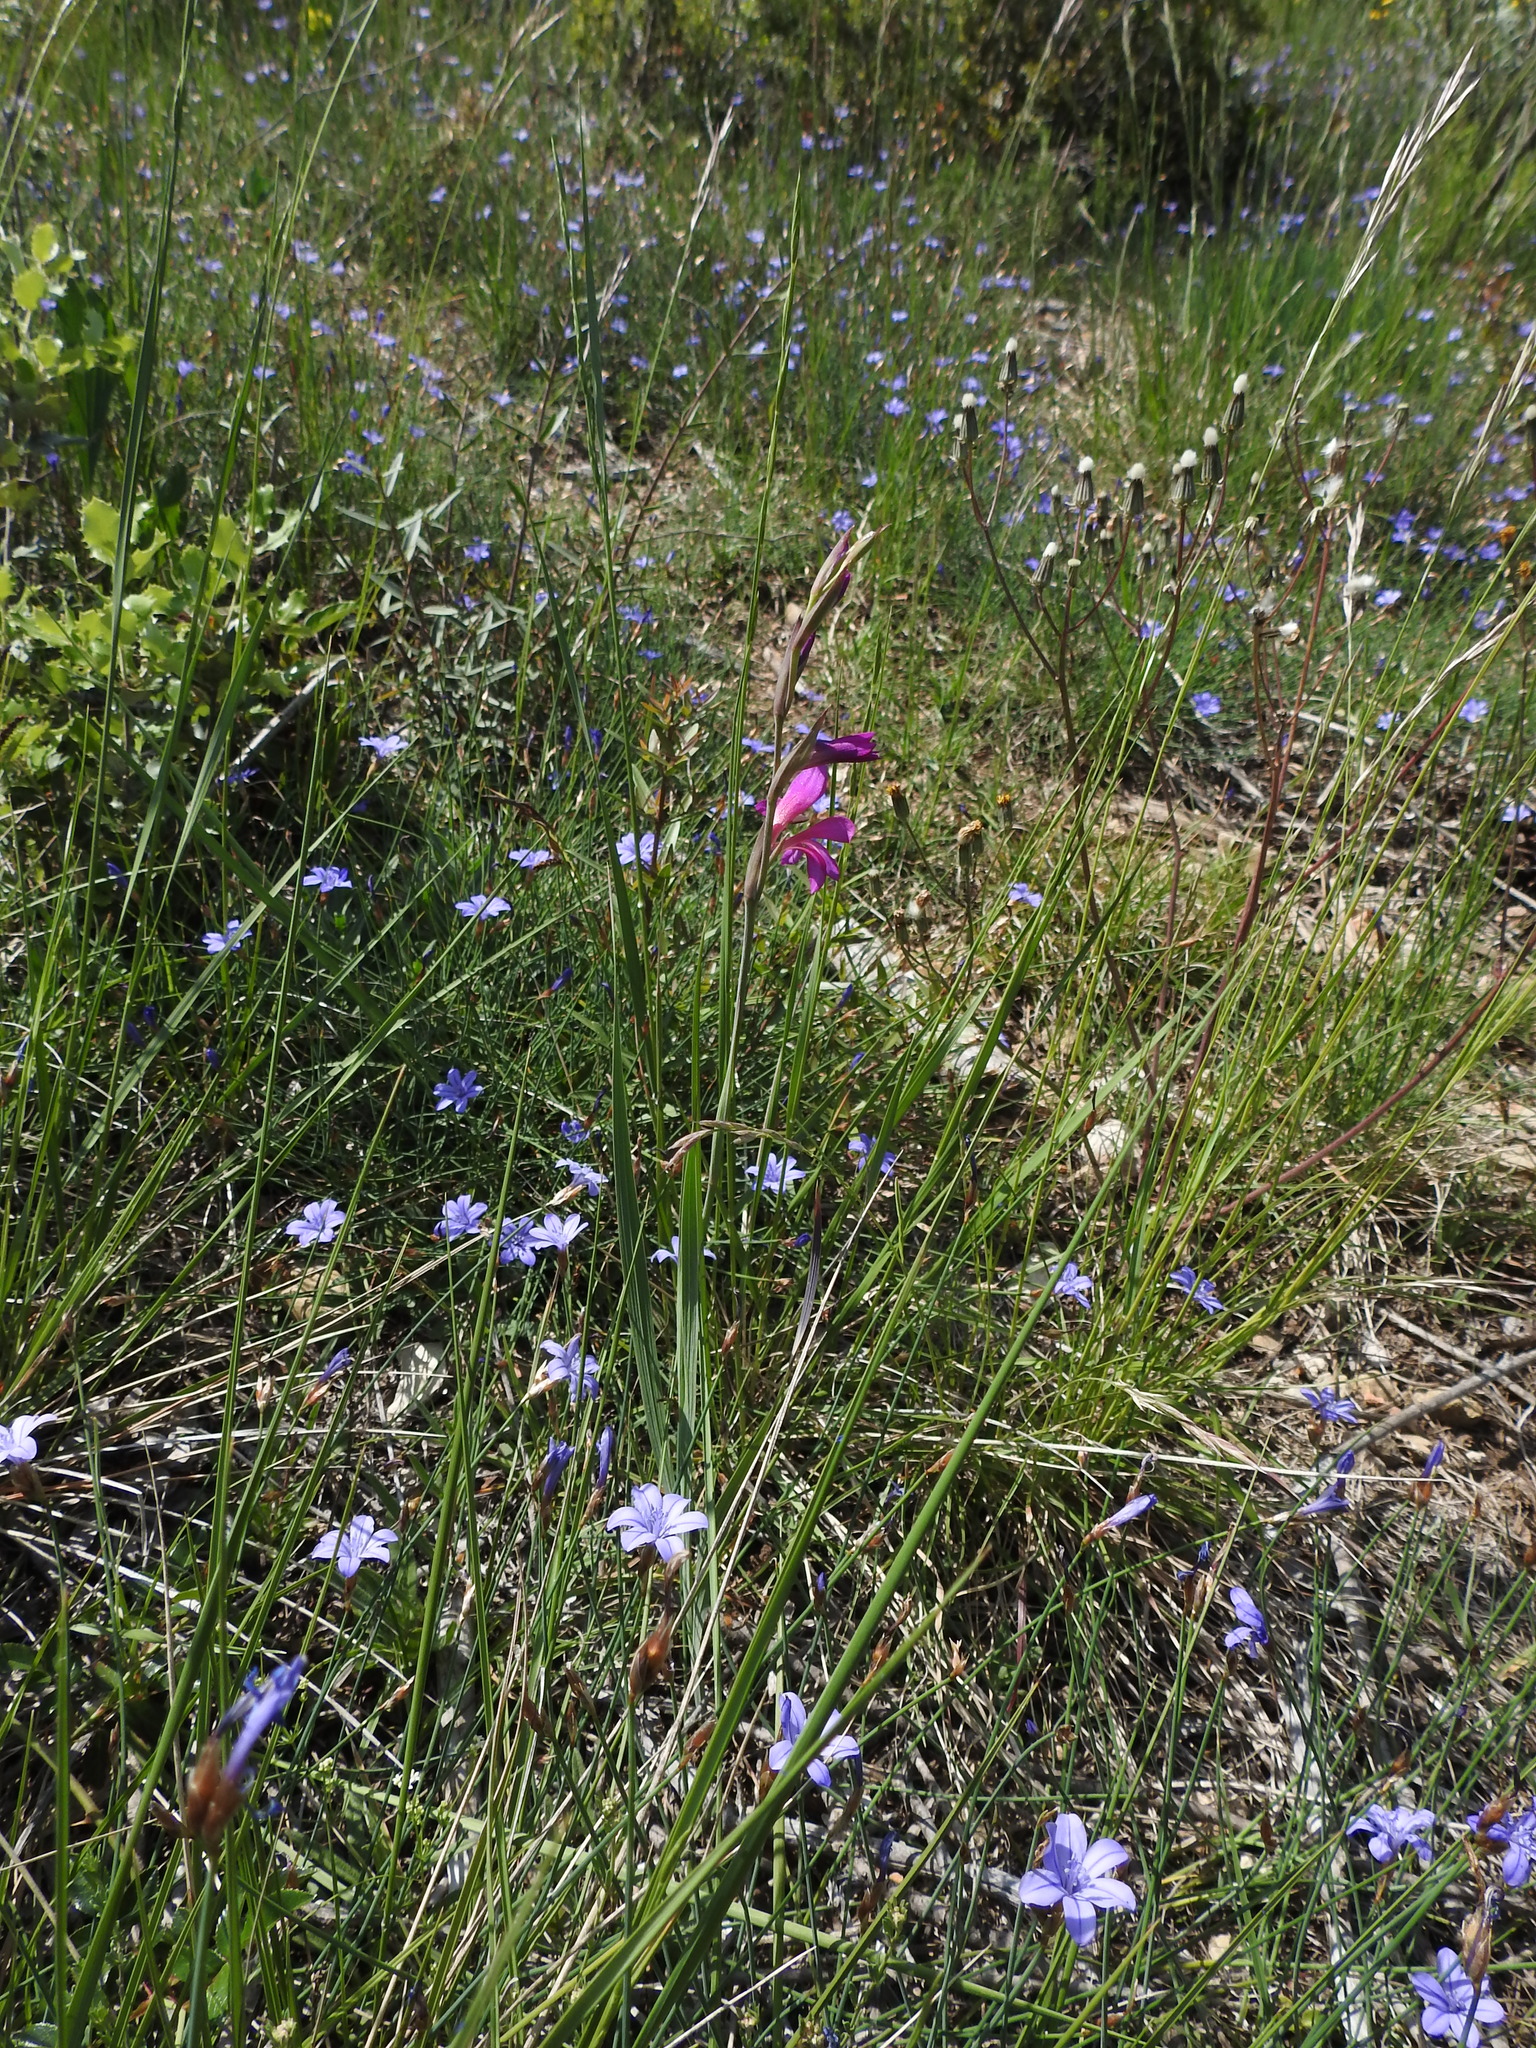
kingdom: Plantae
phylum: Tracheophyta
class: Liliopsida
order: Asparagales
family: Iridaceae
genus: Gladiolus
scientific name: Gladiolus dubius
